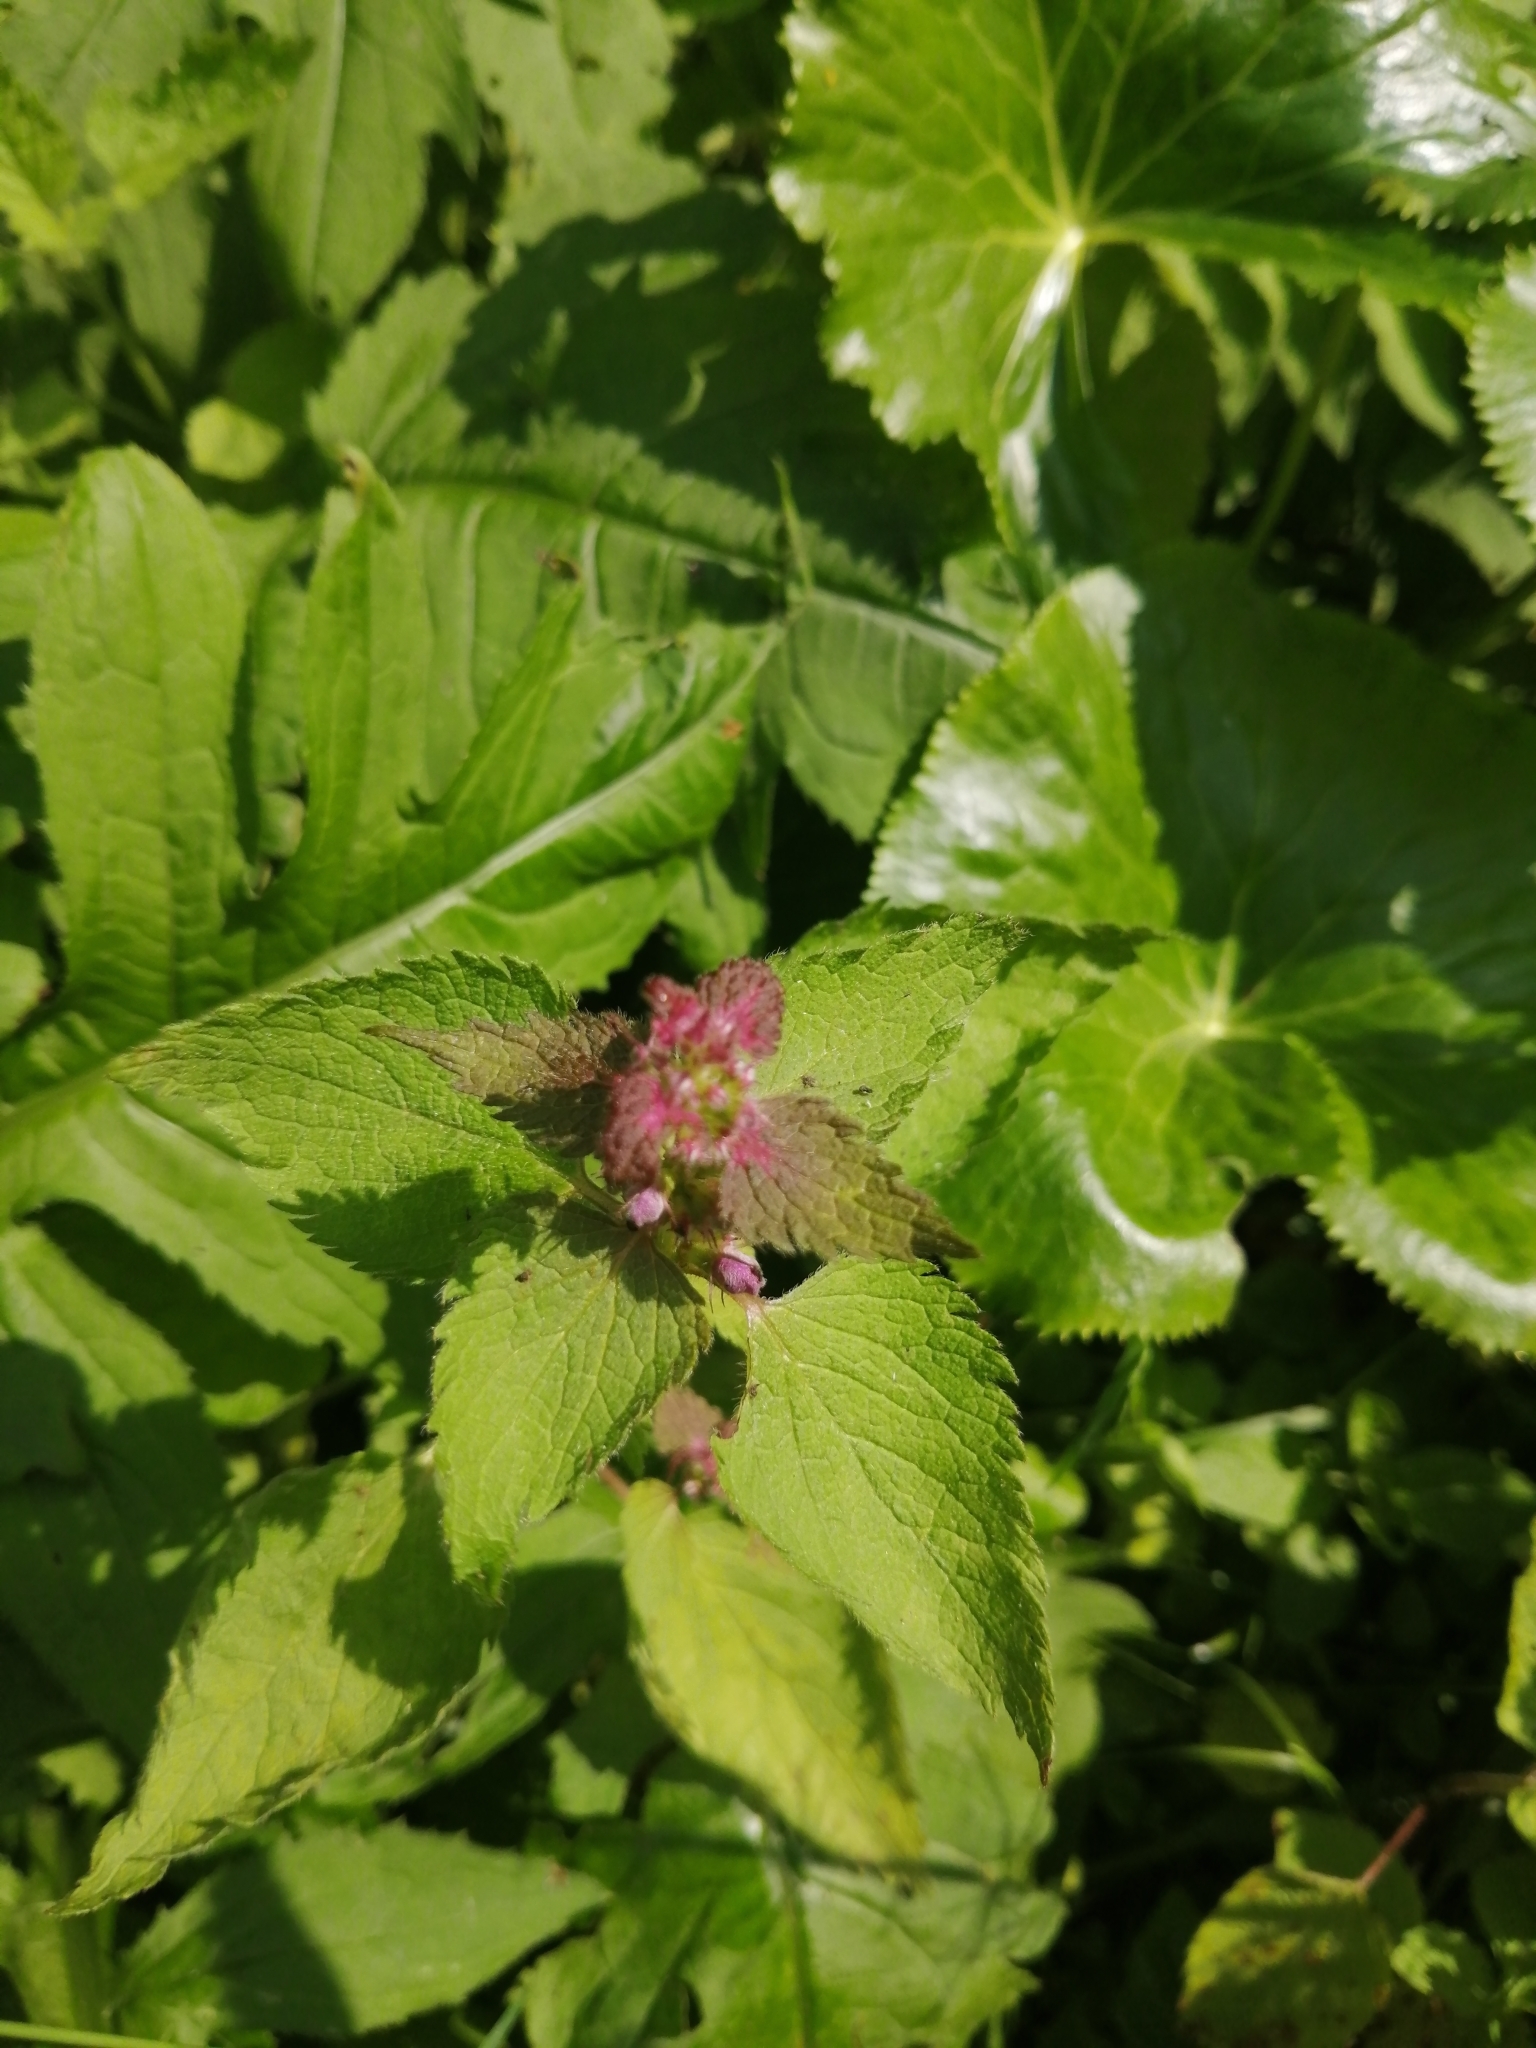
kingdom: Plantae
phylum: Tracheophyta
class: Magnoliopsida
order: Lamiales
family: Lamiaceae
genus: Lamium
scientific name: Lamium maculatum
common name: Spotted dead-nettle
